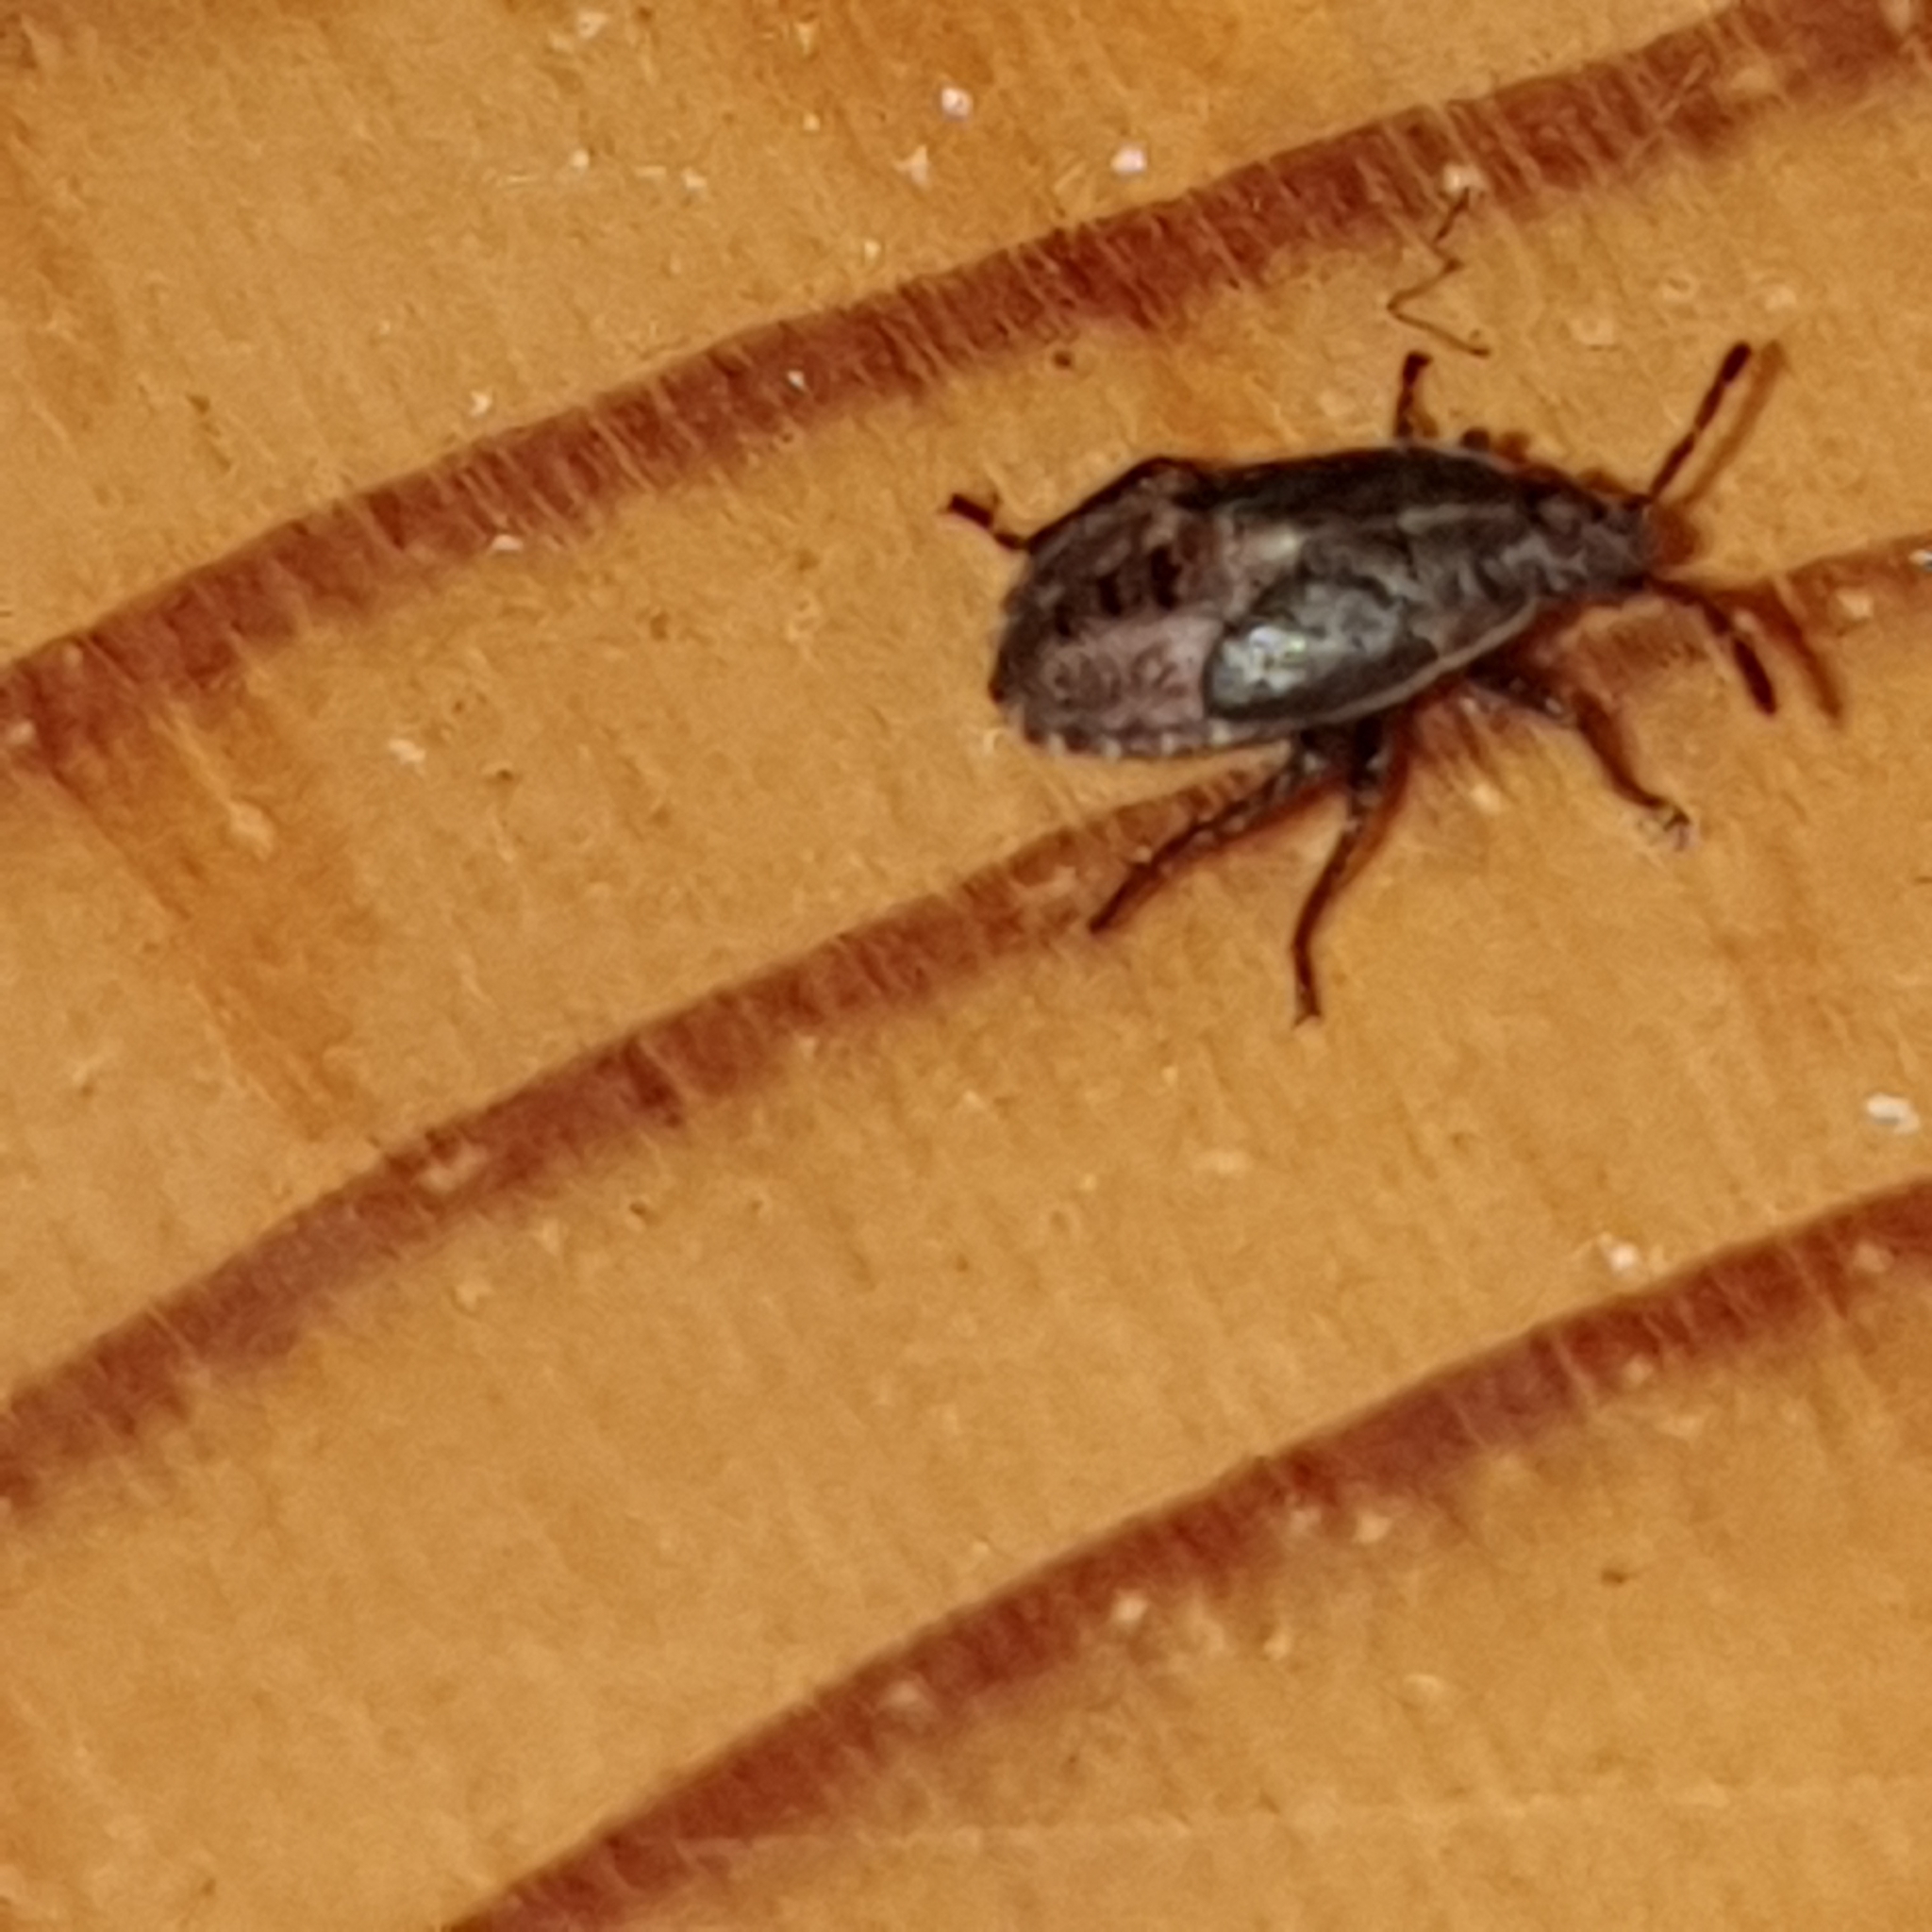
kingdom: Animalia
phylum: Arthropoda
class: Insecta
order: Hemiptera
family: Lygaeidae
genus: Kleidocerys
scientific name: Kleidocerys resedae
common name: Birch catkin bug
